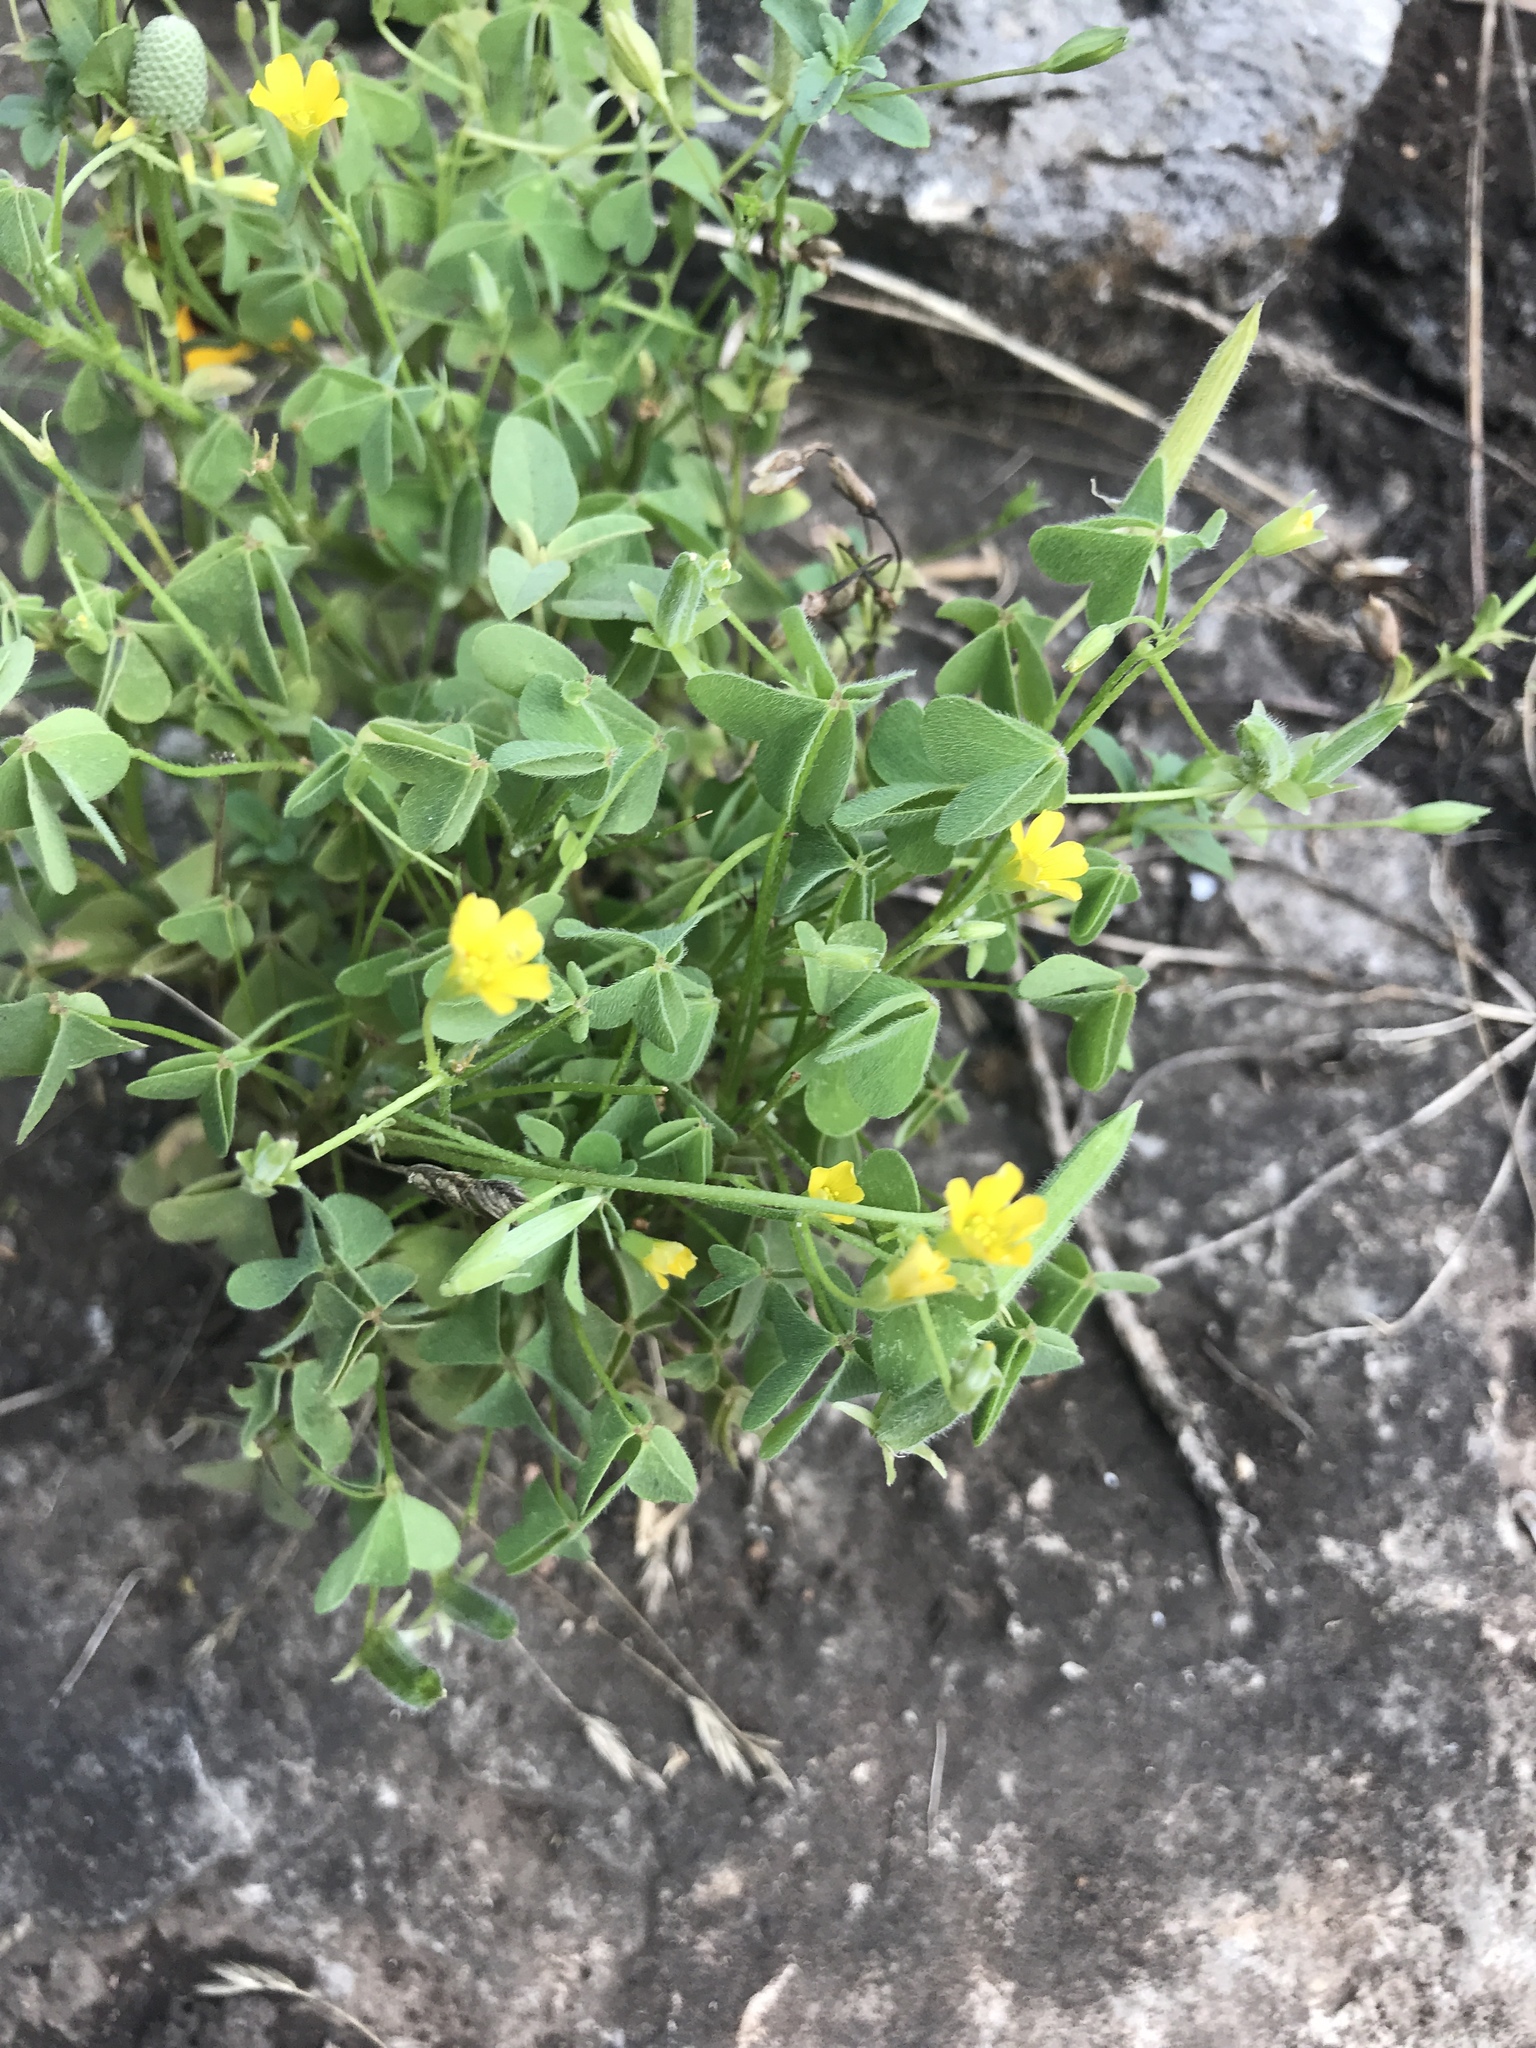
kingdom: Plantae
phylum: Tracheophyta
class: Magnoliopsida
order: Oxalidales
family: Oxalidaceae
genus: Oxalis
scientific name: Oxalis
